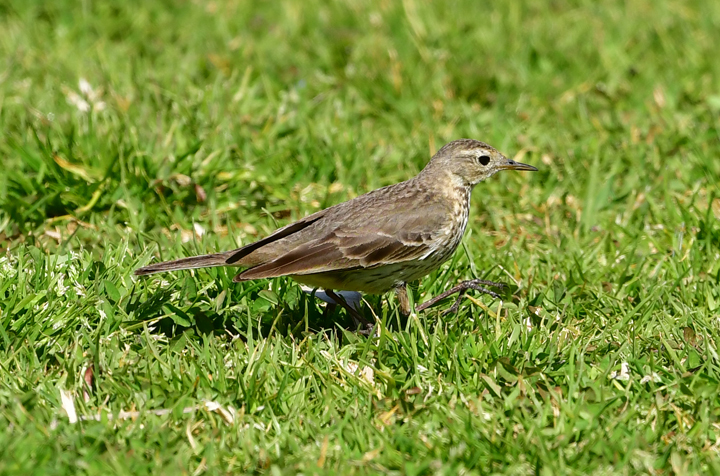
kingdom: Animalia
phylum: Chordata
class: Aves
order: Passeriformes
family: Motacillidae
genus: Anthus
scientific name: Anthus rubescens
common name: Buff-bellied pipit
